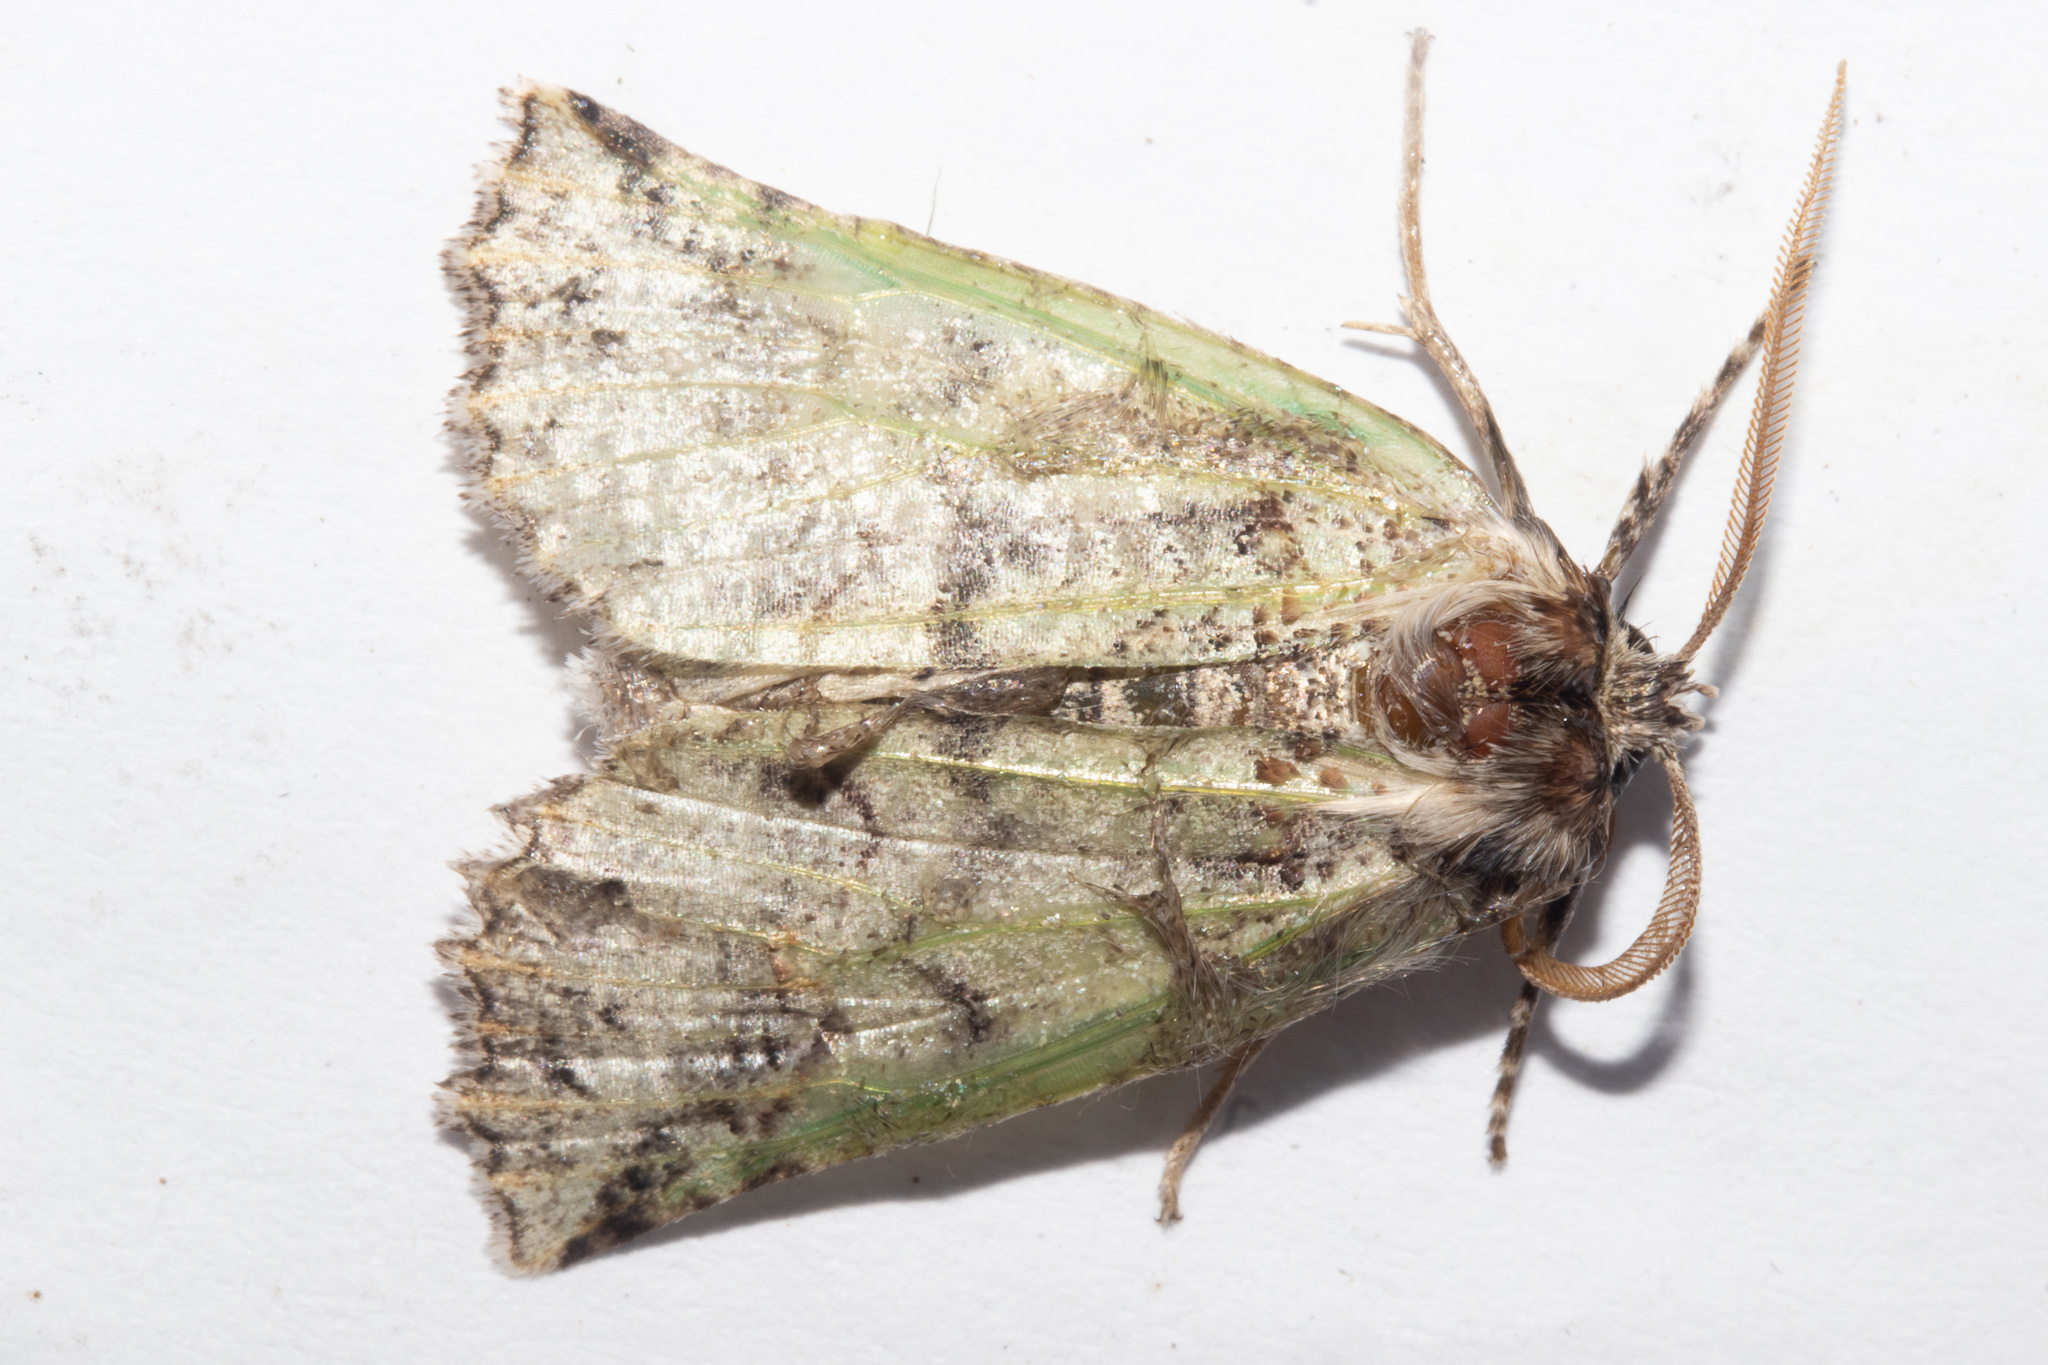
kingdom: Animalia
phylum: Arthropoda
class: Insecta
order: Lepidoptera
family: Geometridae
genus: Declana
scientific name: Declana floccosa
